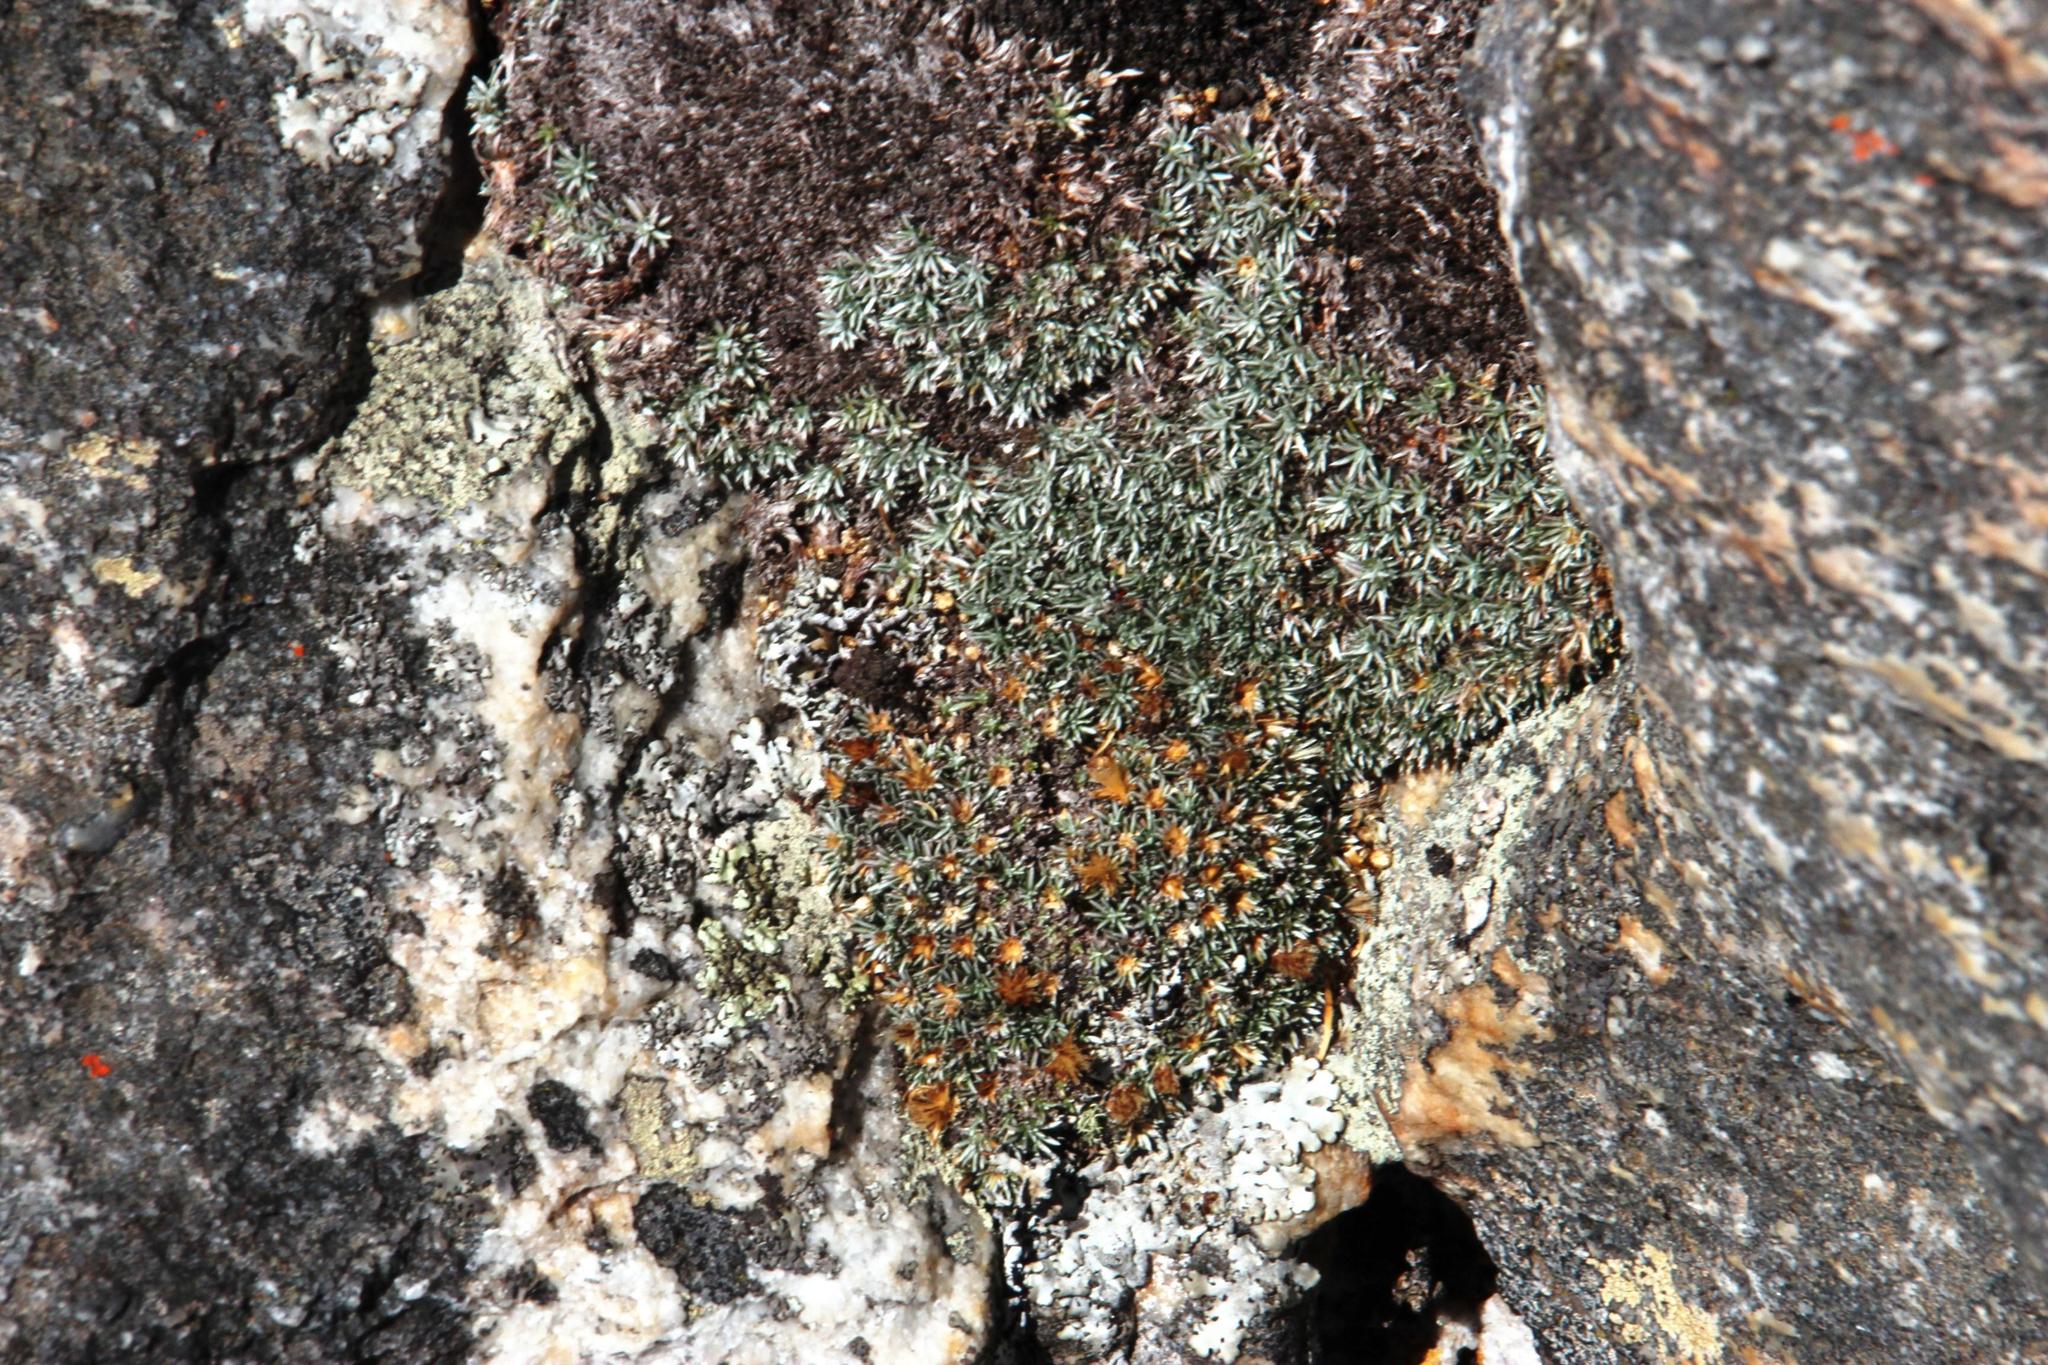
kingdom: Plantae
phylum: Tracheophyta
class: Magnoliopsida
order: Asterales
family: Asteraceae
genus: Muscosomorphe
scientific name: Muscosomorphe aretioides
